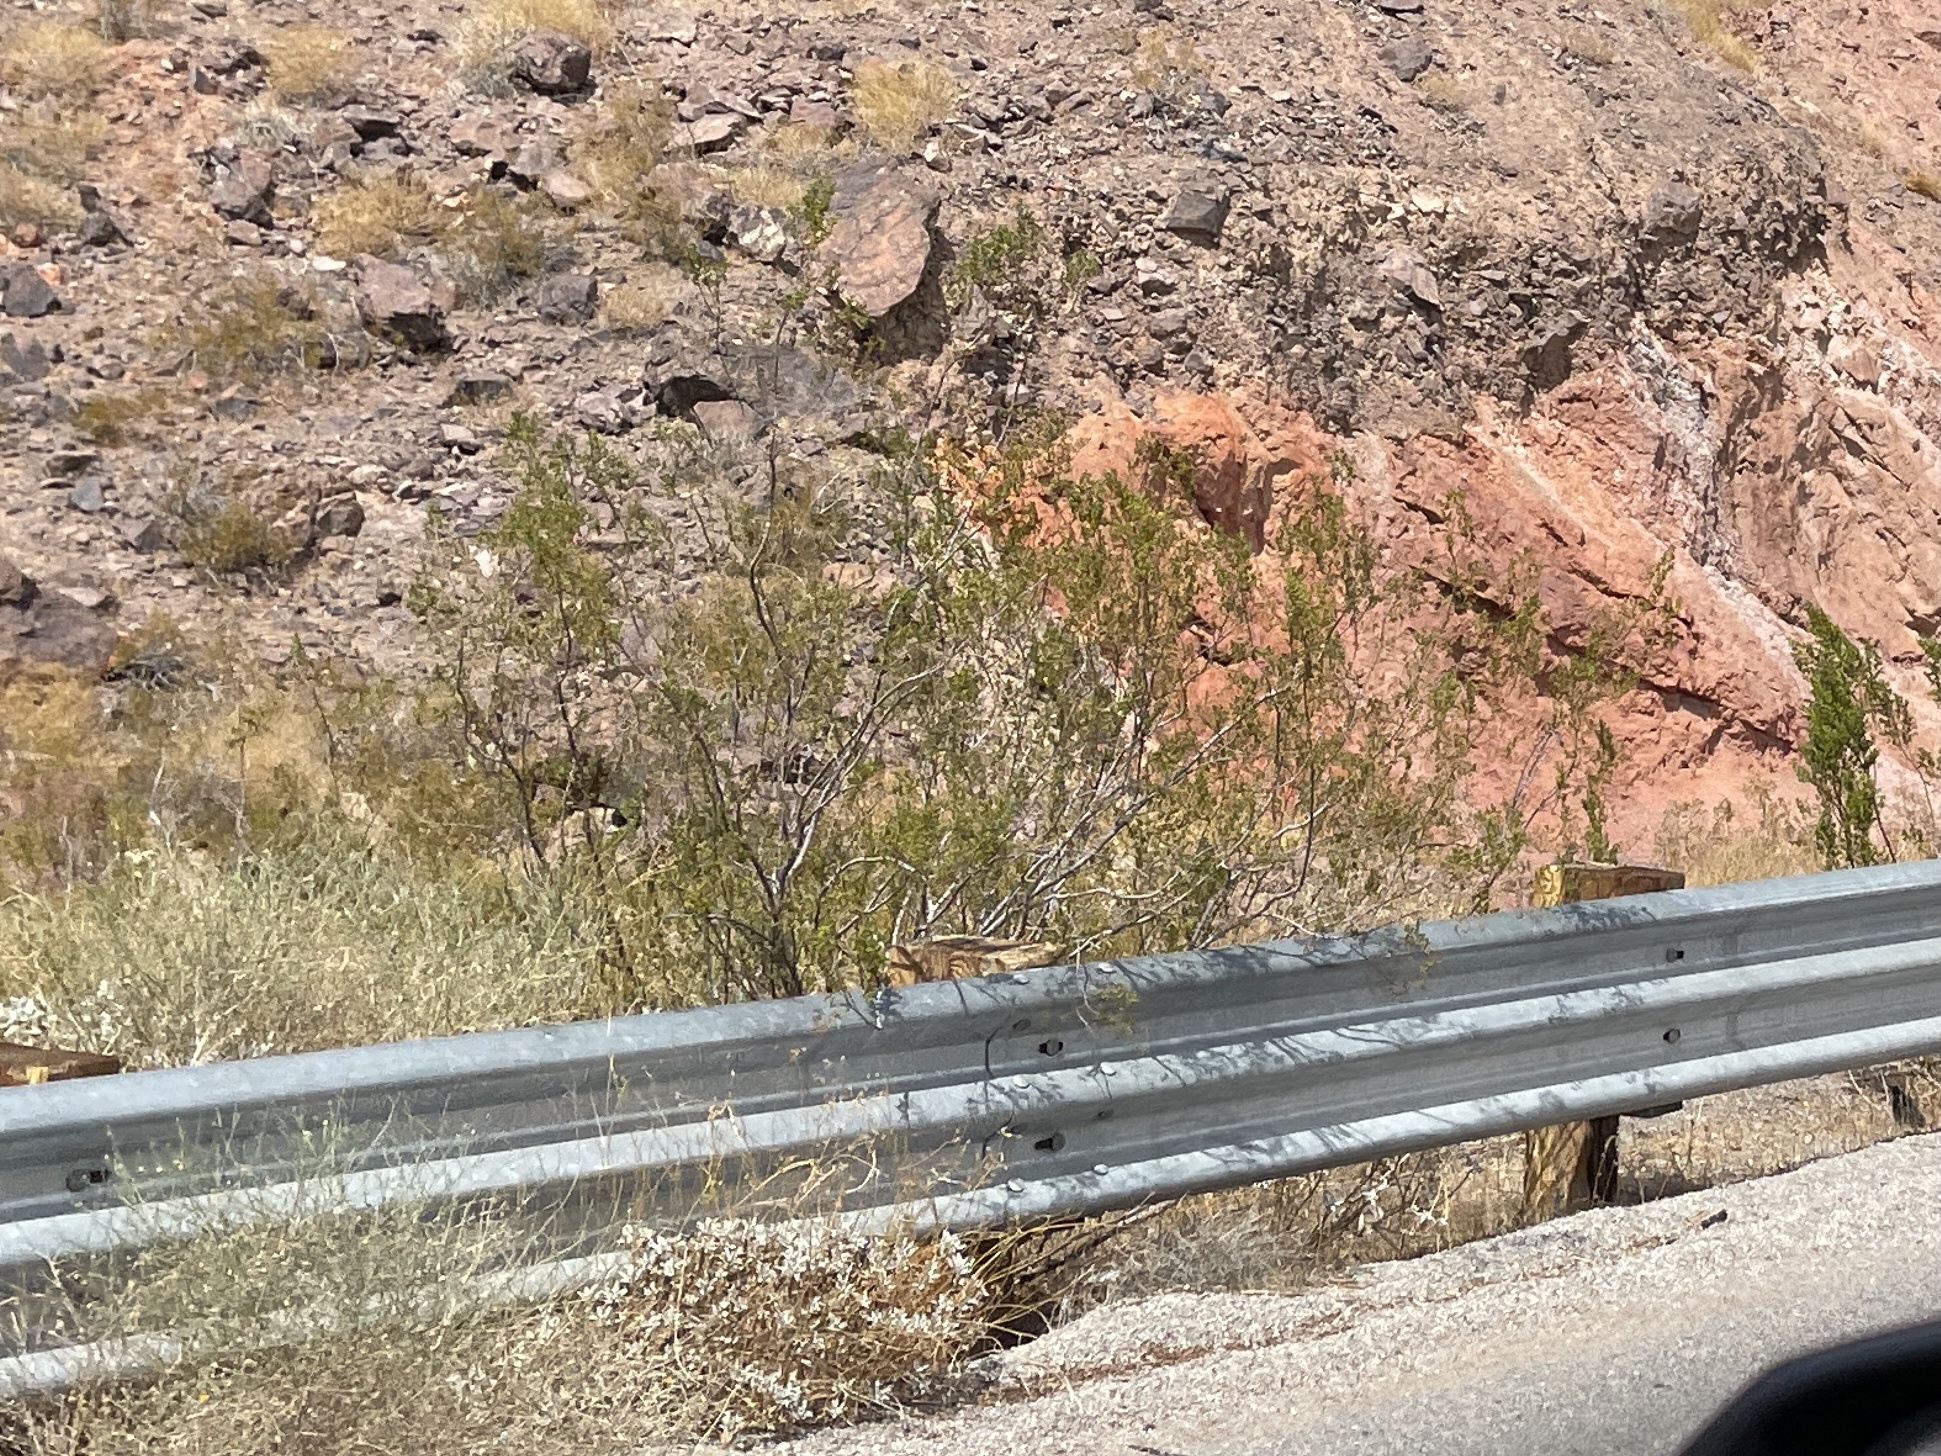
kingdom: Plantae
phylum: Tracheophyta
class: Magnoliopsida
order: Zygophyllales
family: Zygophyllaceae
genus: Larrea
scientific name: Larrea tridentata
